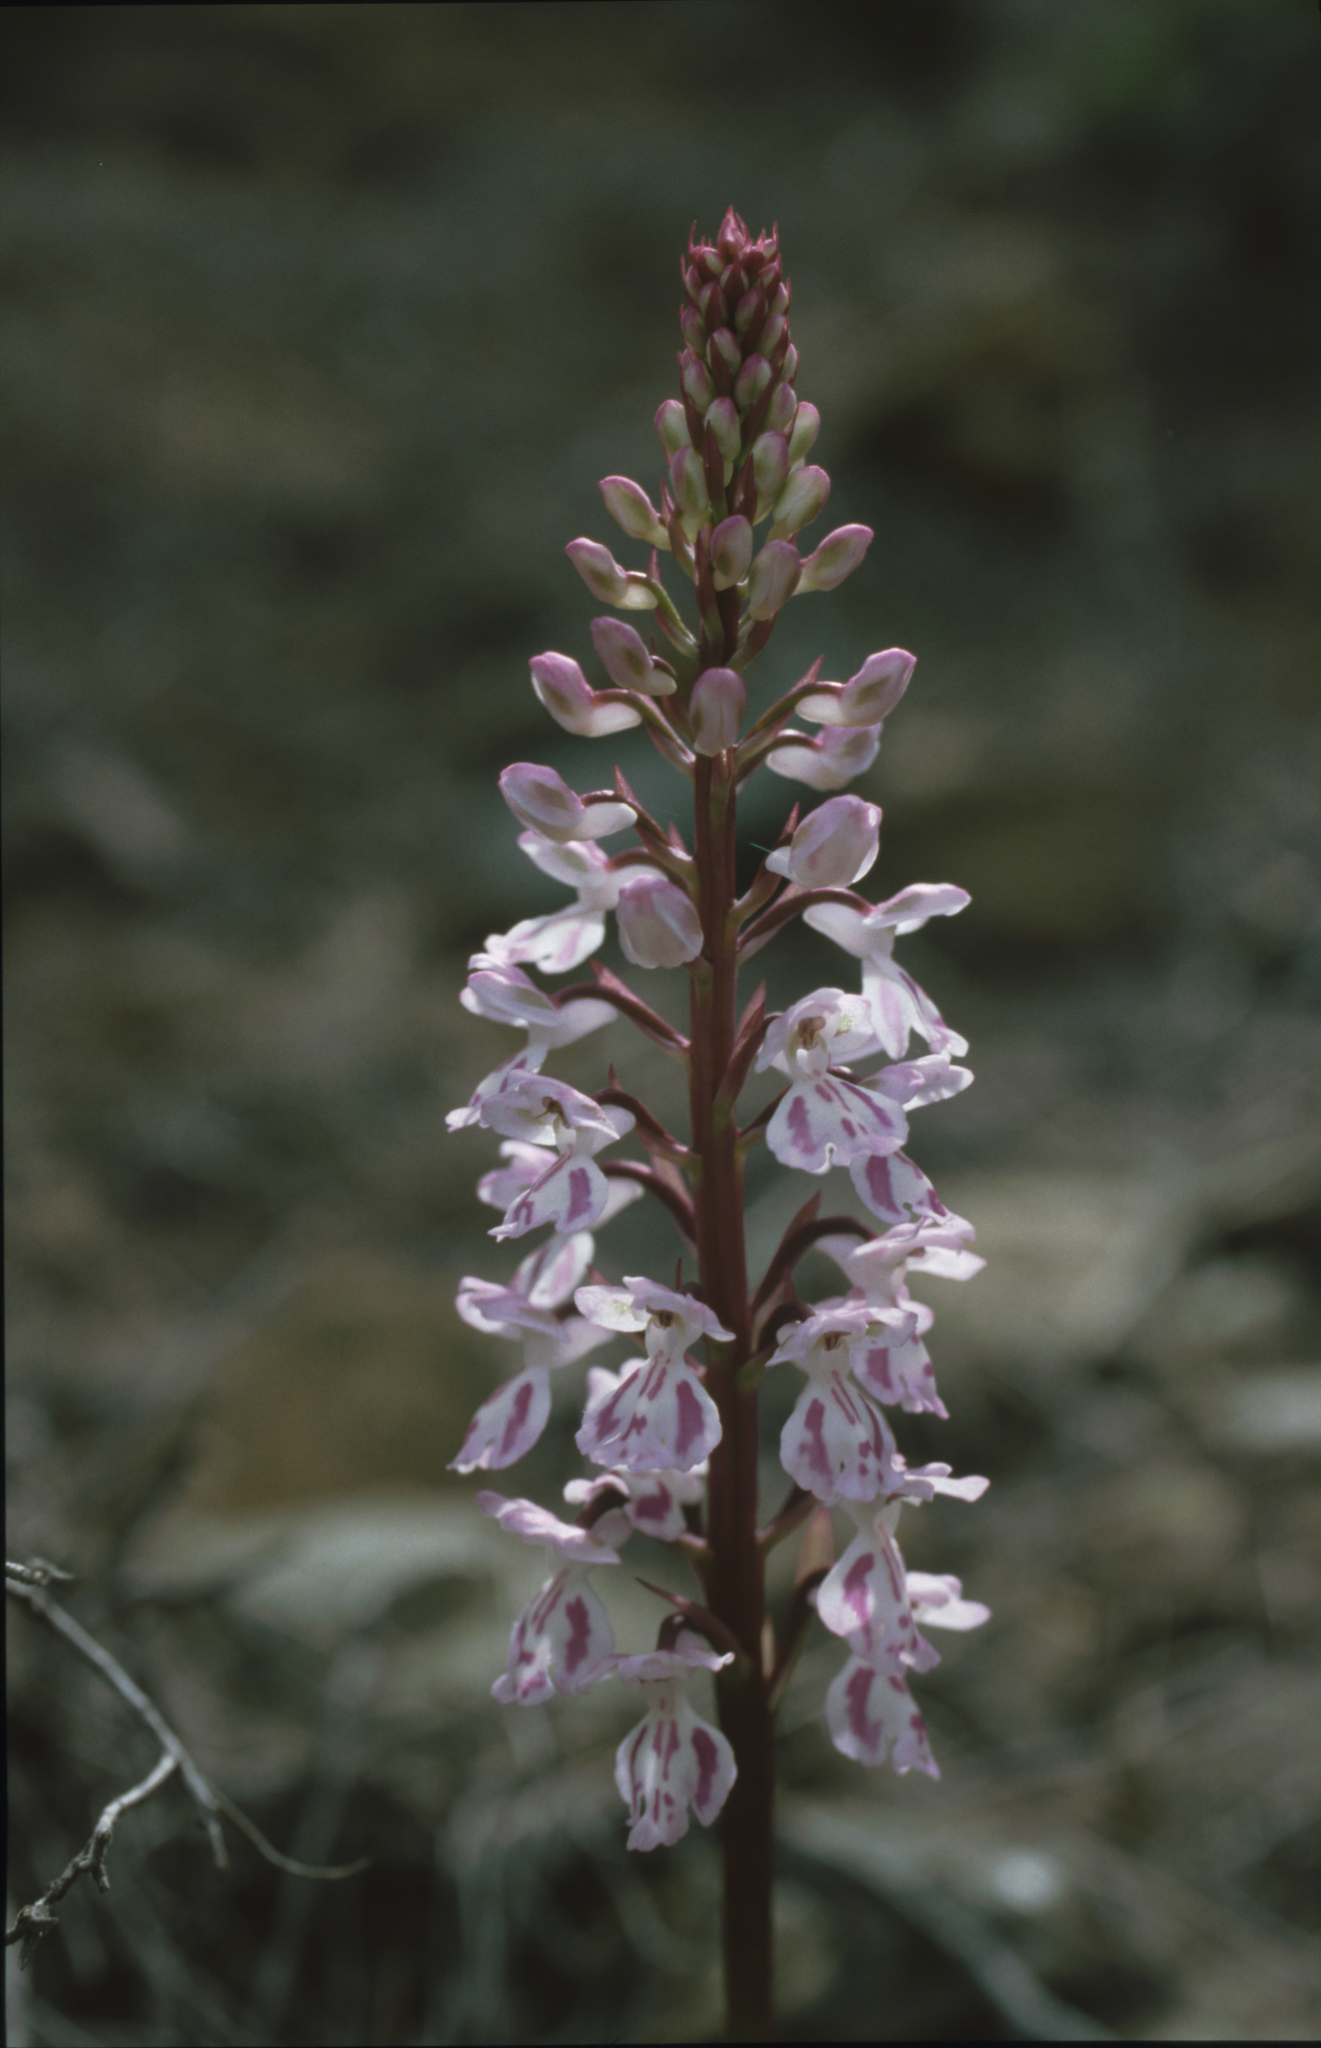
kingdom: Plantae
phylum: Tracheophyta
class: Liliopsida
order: Asparagales
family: Orchidaceae
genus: Orchis
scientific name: Orchis canariensis
